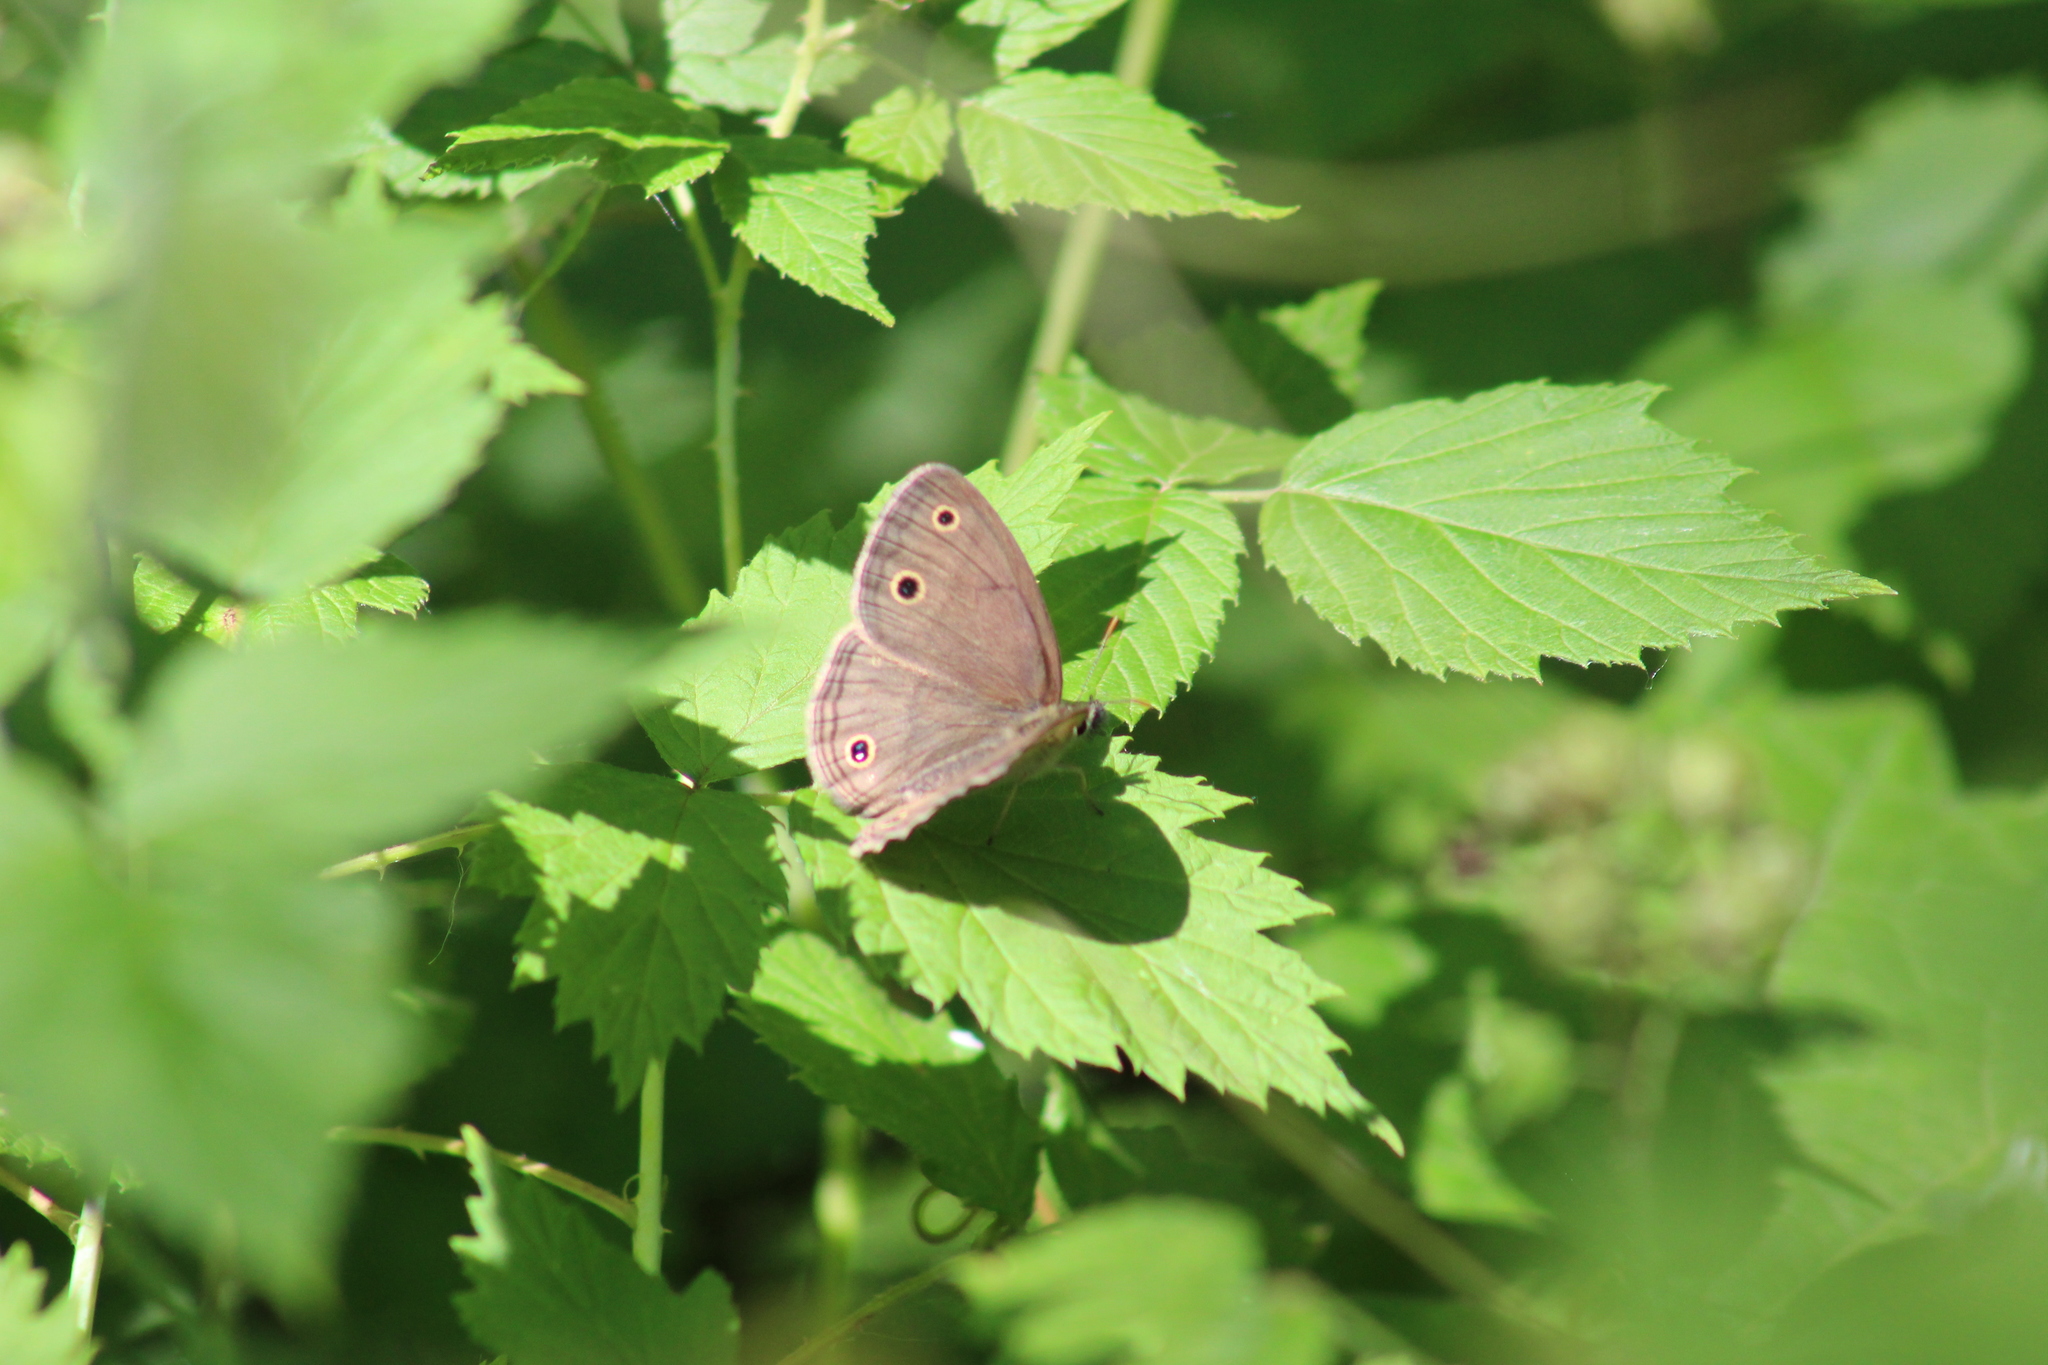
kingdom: Animalia
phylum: Arthropoda
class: Insecta
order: Lepidoptera
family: Nymphalidae
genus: Euptychia
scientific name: Euptychia cymela
